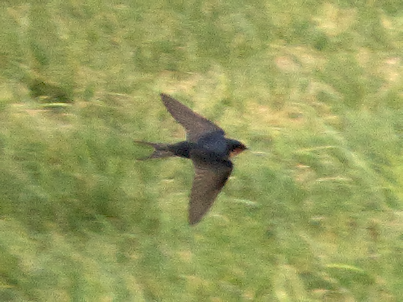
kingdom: Animalia
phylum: Chordata
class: Aves
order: Passeriformes
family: Hirundinidae
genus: Hirundo
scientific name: Hirundo neoxena
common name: Welcome swallow
